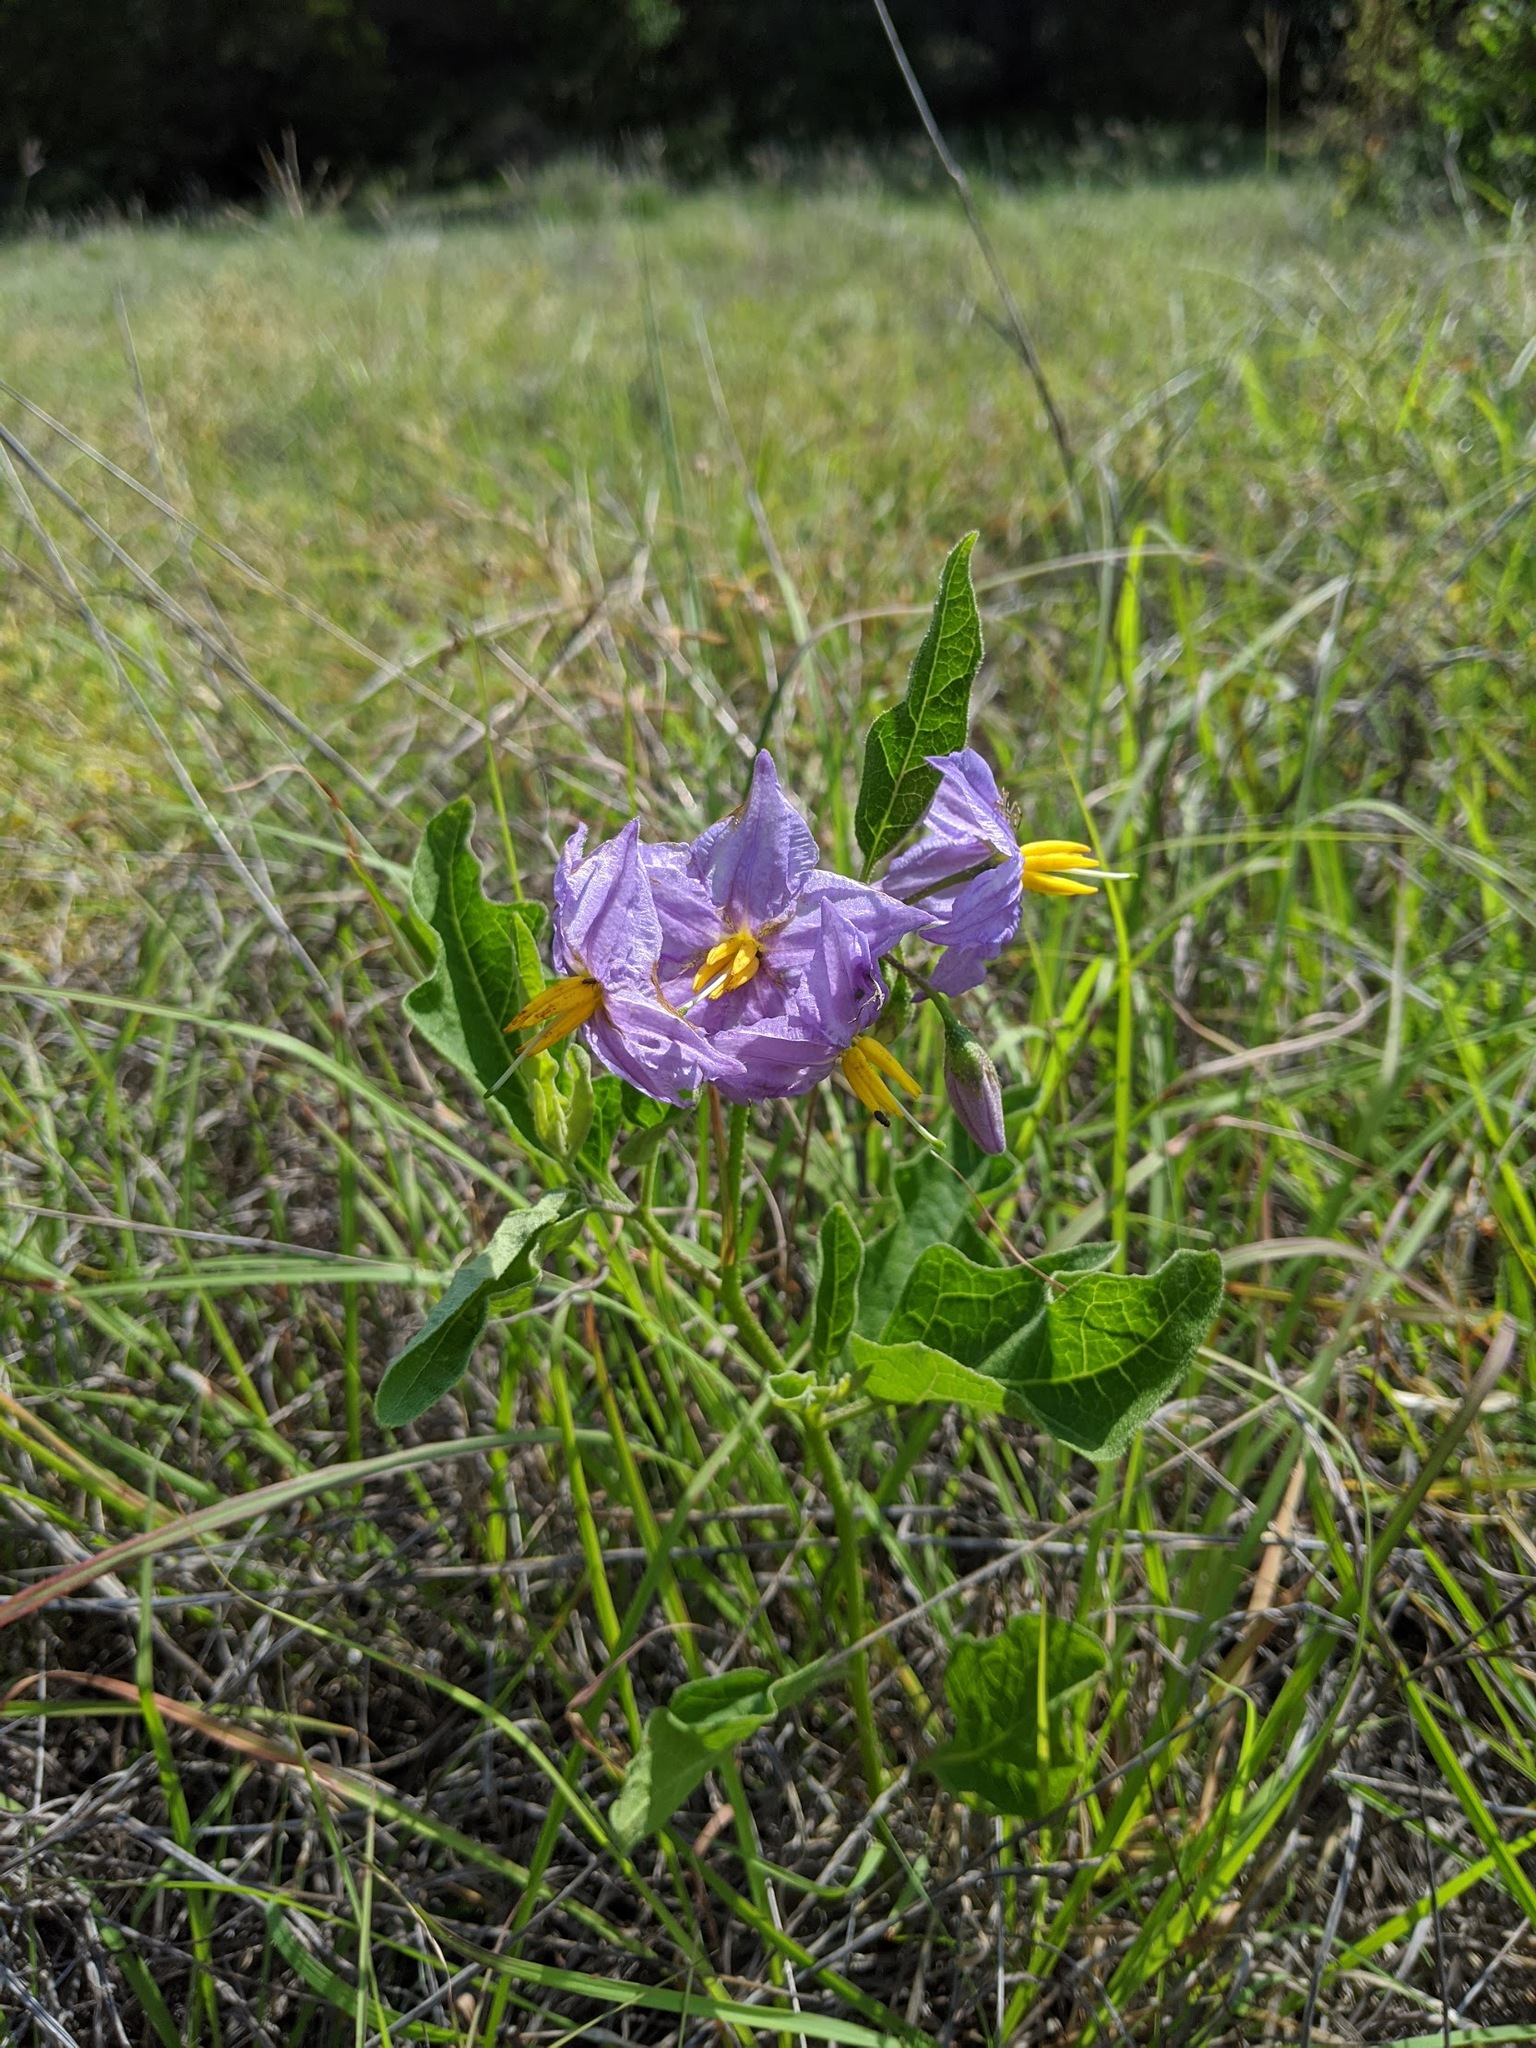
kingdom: Plantae
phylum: Tracheophyta
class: Magnoliopsida
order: Solanales
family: Solanaceae
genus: Solanum
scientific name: Solanum dimidiatum
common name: Carolina horse-nettle
